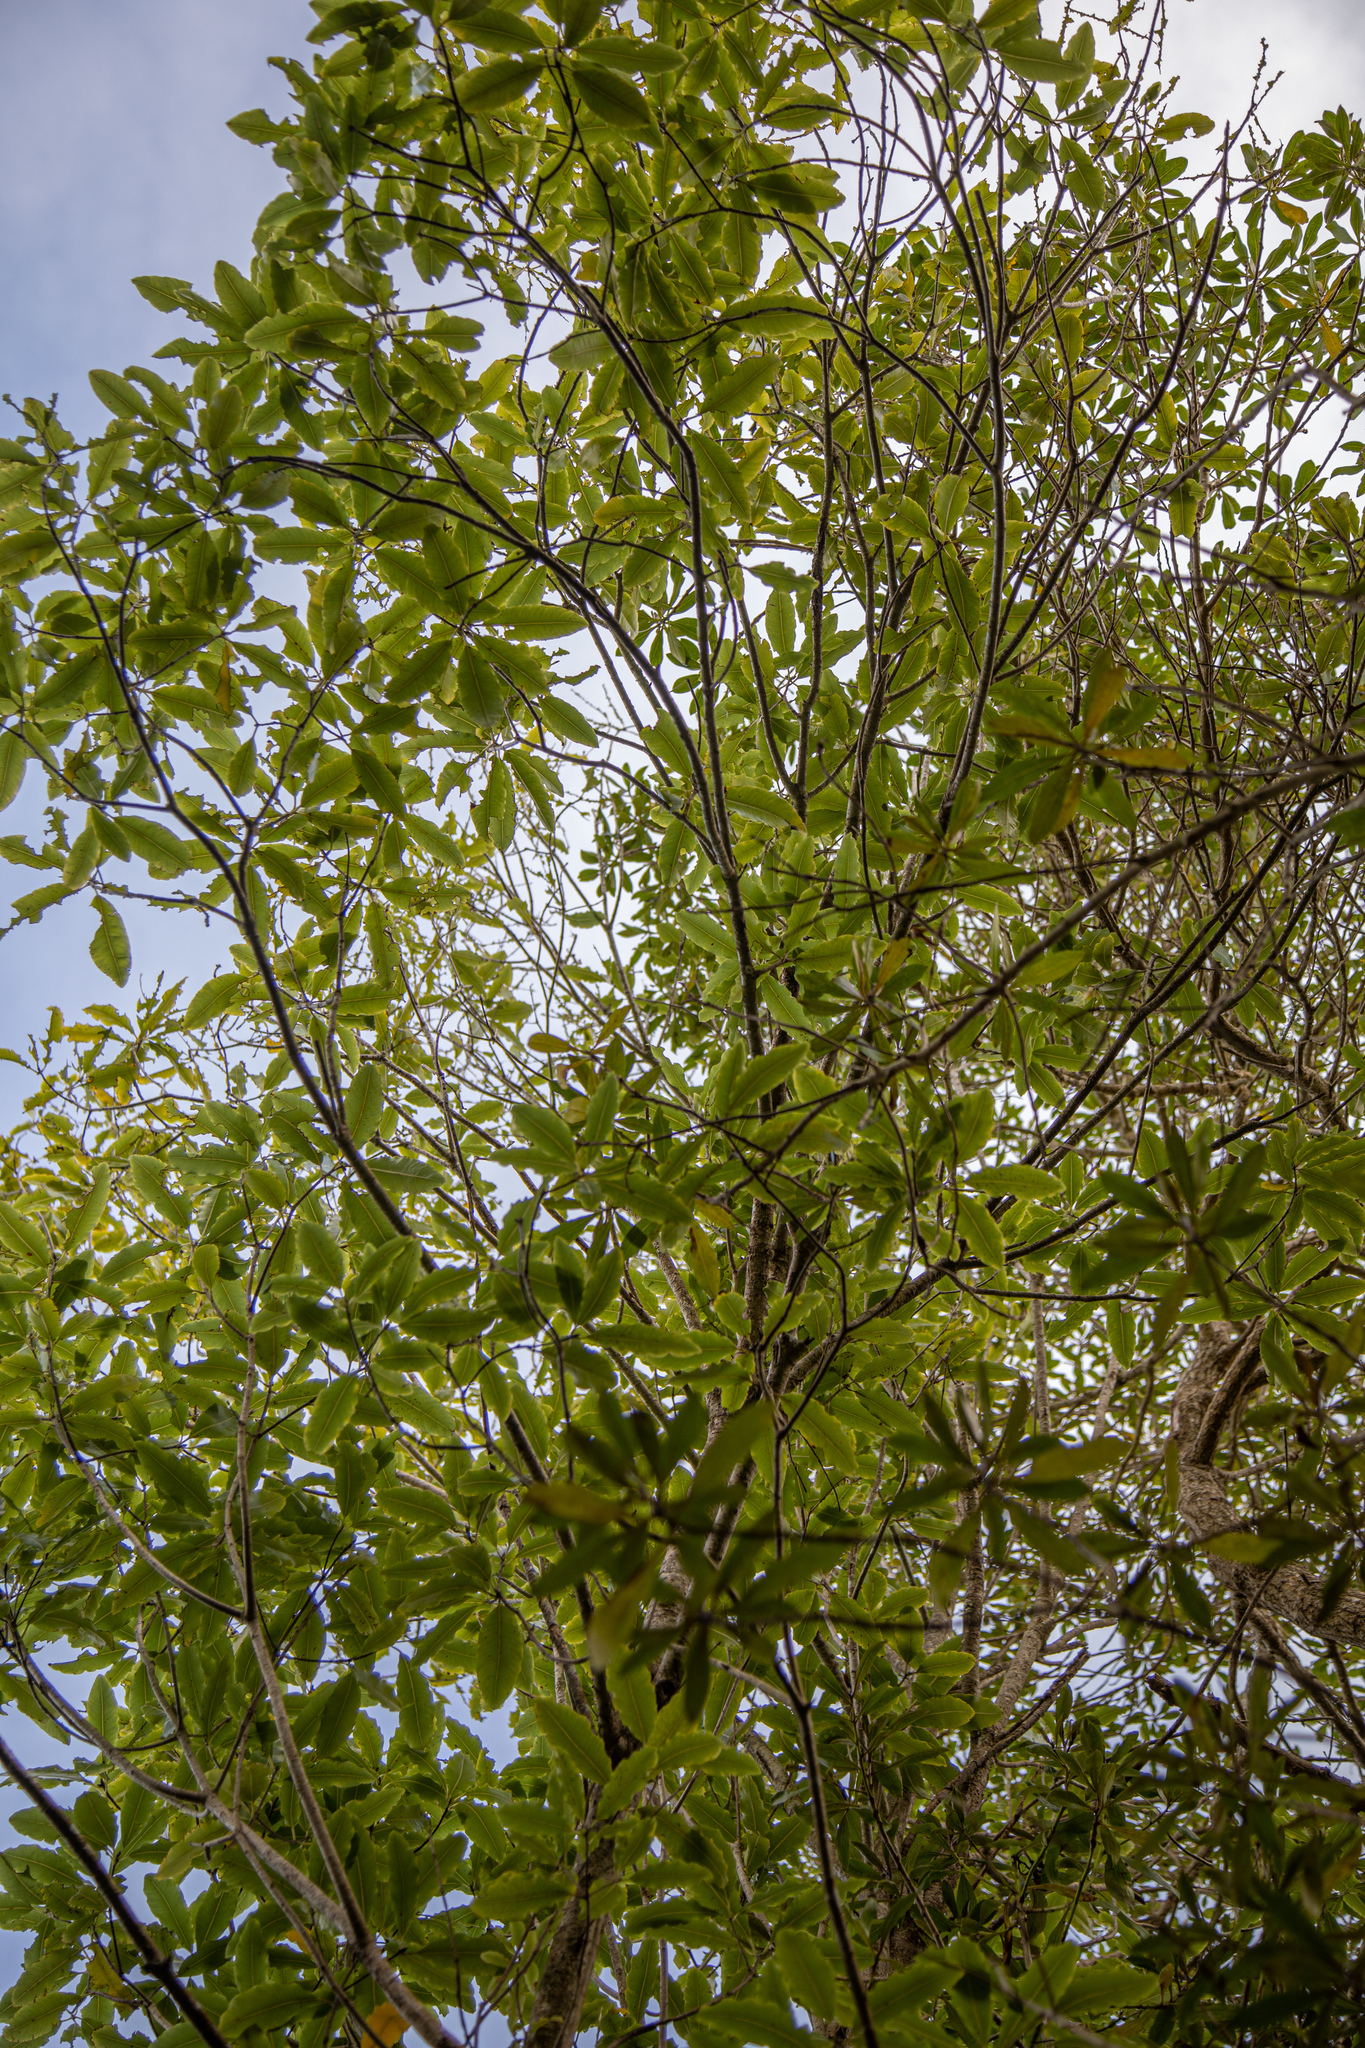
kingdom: Plantae
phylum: Tracheophyta
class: Magnoliopsida
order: Apiales
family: Pittosporaceae
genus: Pittosporum
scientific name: Pittosporum eugenioides
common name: Lemonwood
